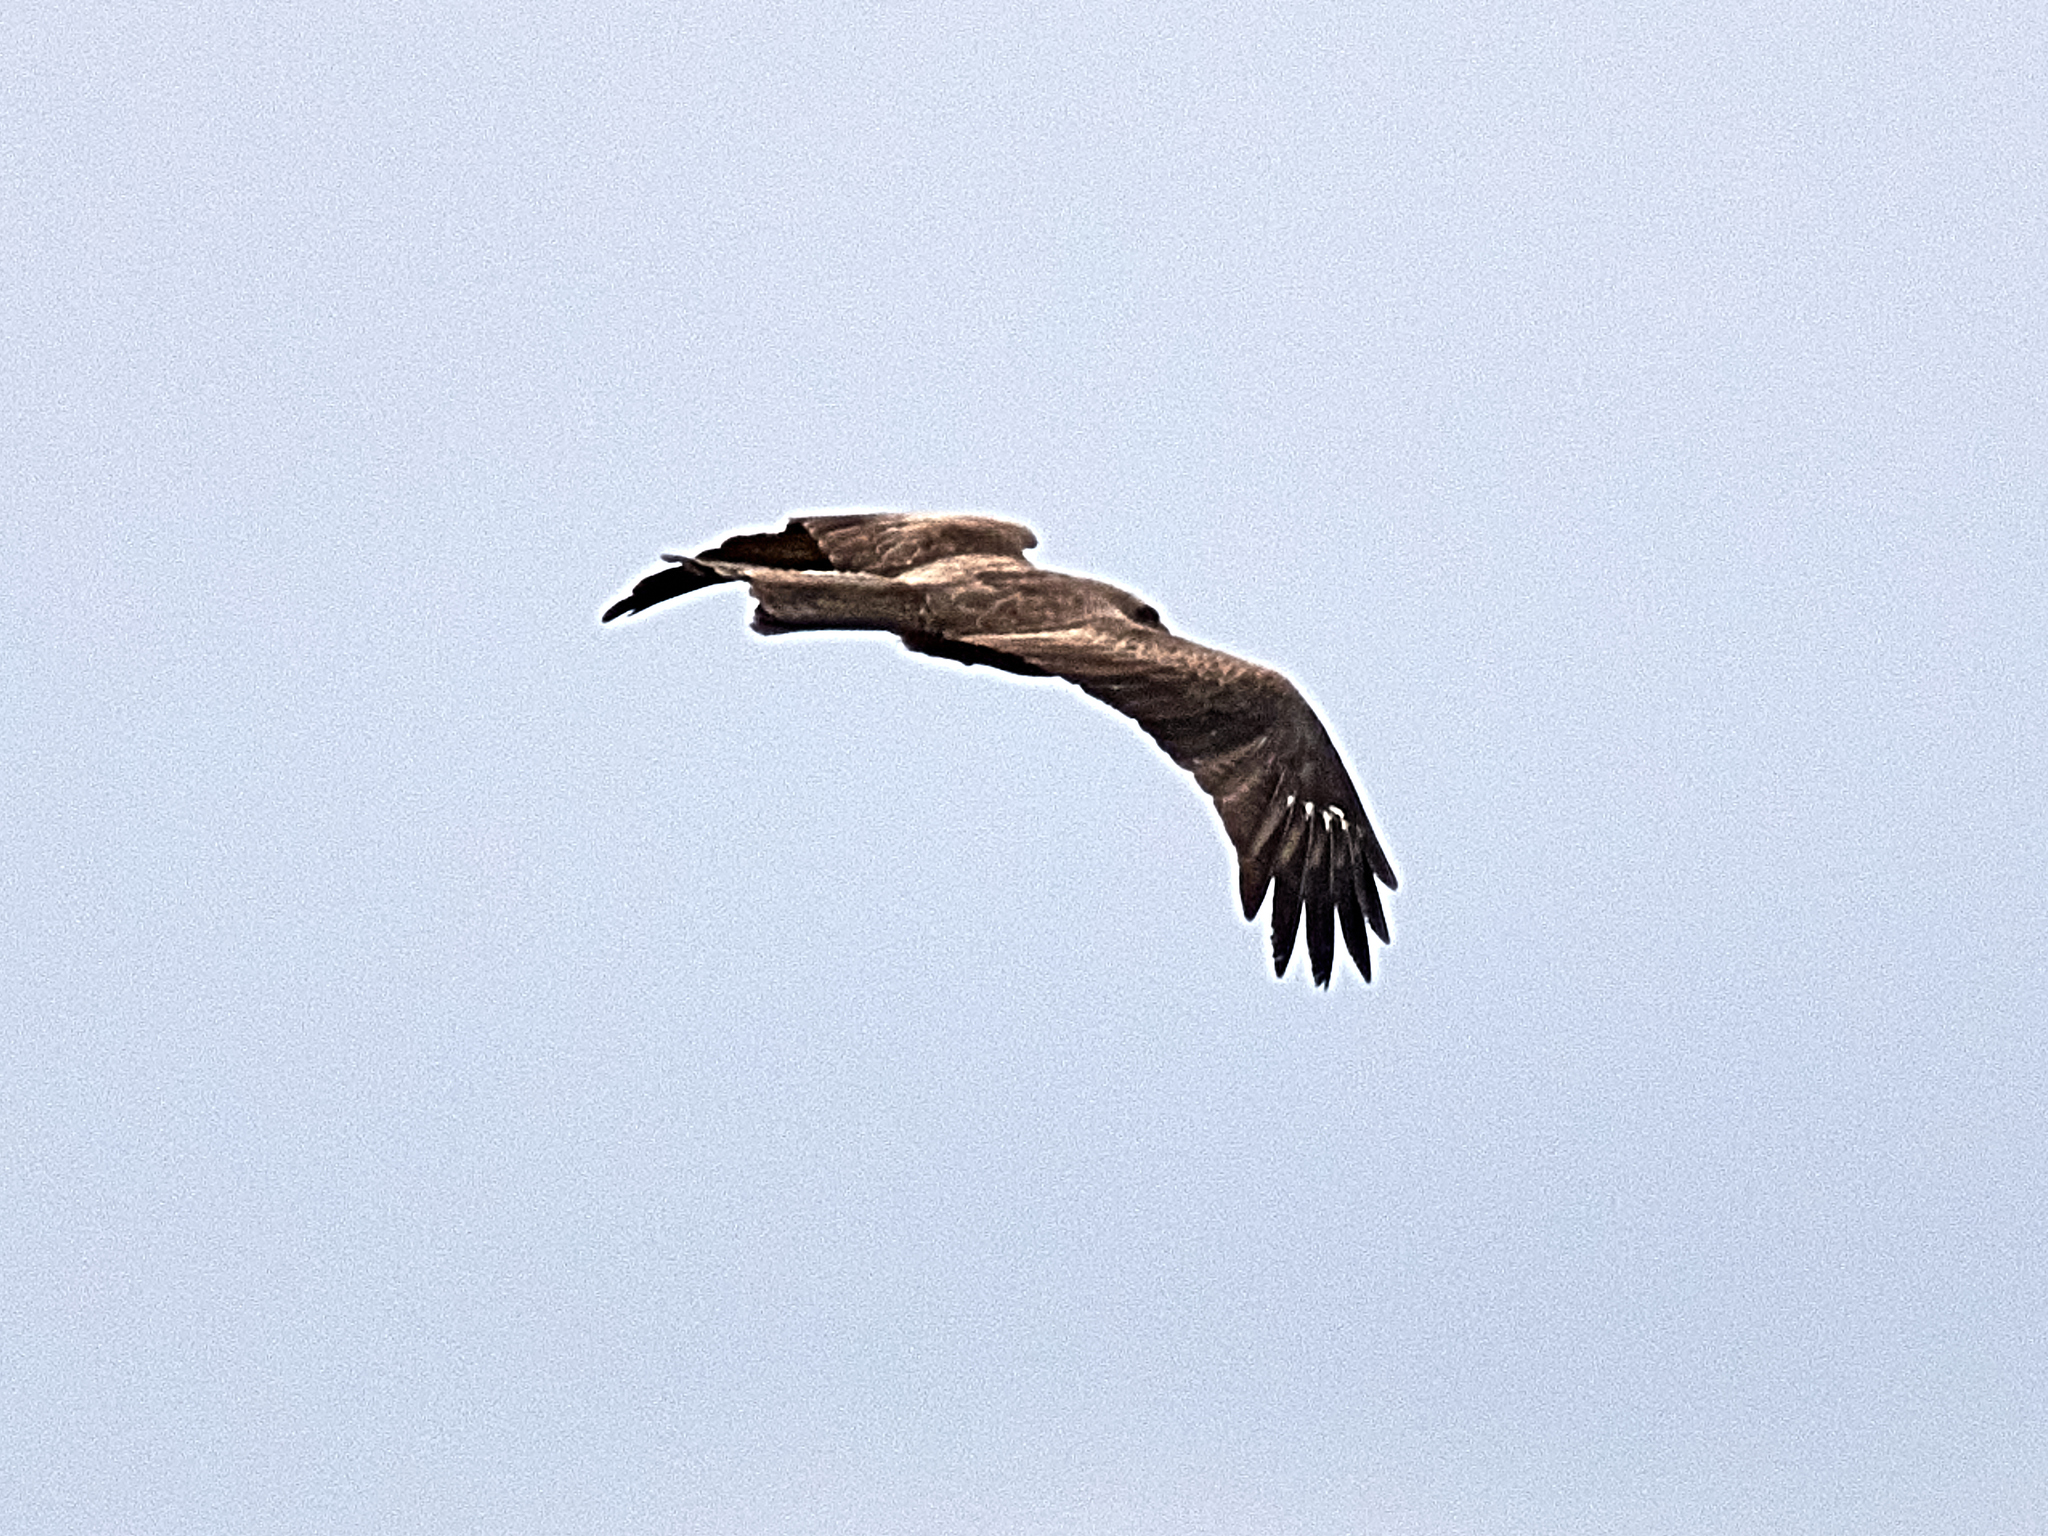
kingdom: Animalia
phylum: Chordata
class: Aves
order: Accipitriformes
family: Accipitridae
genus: Milvus
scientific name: Milvus migrans
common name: Black kite
